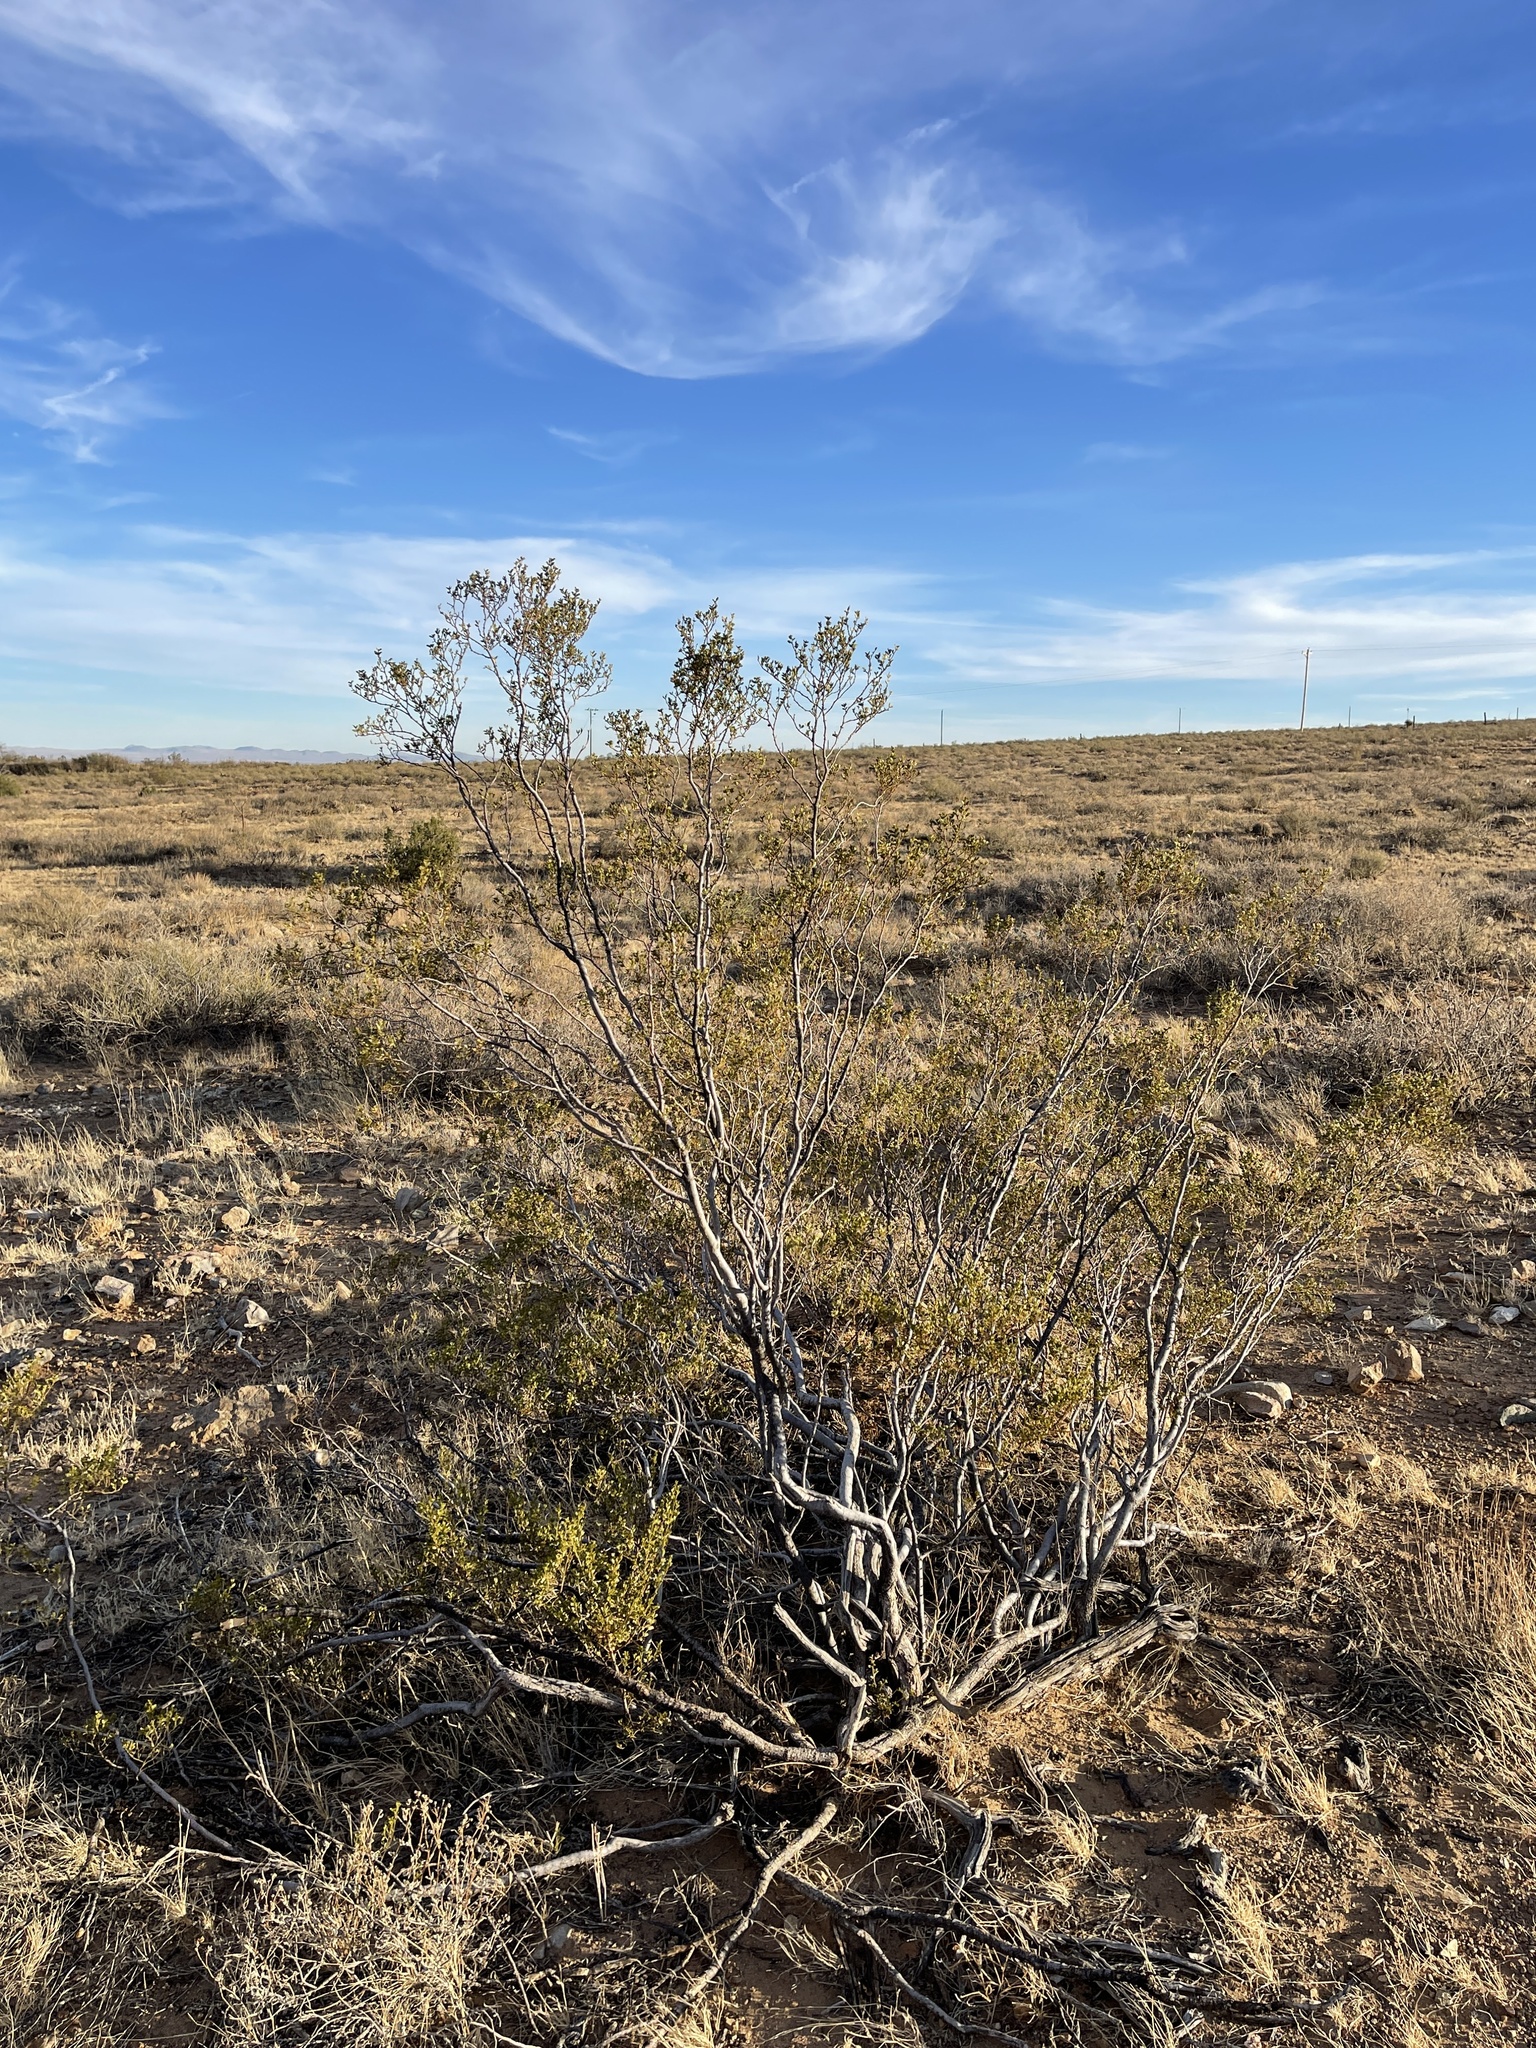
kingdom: Plantae
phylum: Tracheophyta
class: Magnoliopsida
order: Zygophyllales
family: Zygophyllaceae
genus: Larrea
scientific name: Larrea tridentata
